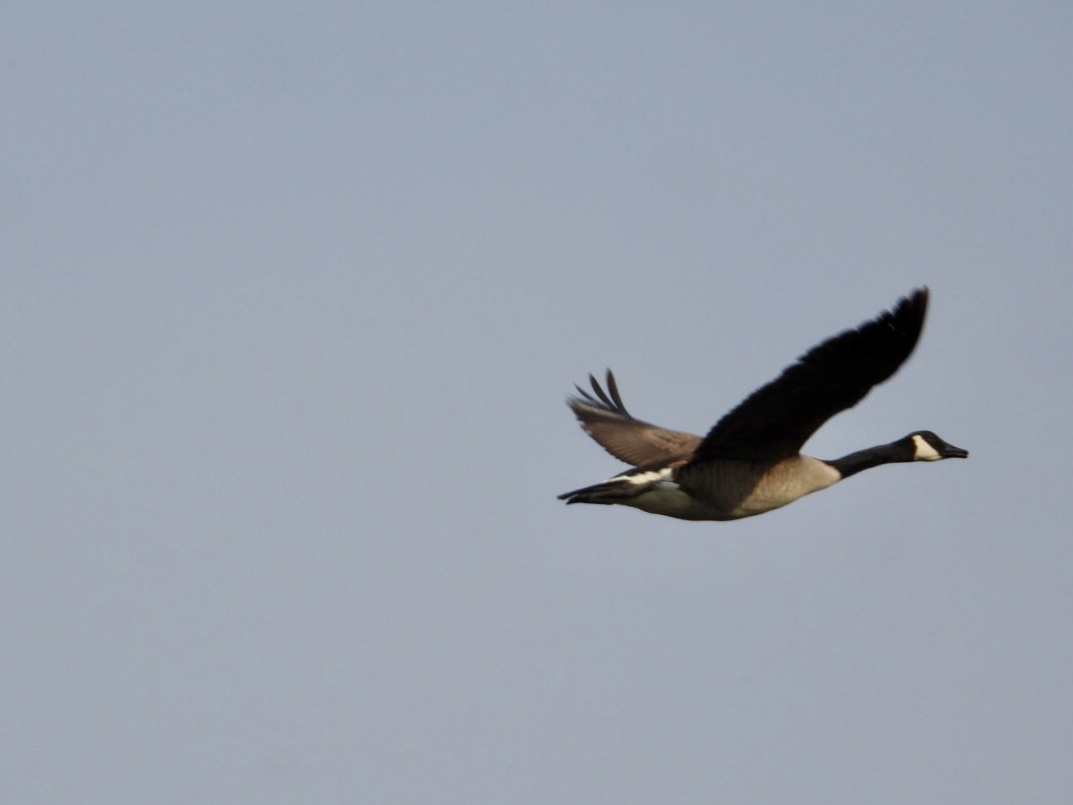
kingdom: Animalia
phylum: Chordata
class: Aves
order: Anseriformes
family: Anatidae
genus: Branta
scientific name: Branta canadensis
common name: Canada goose
